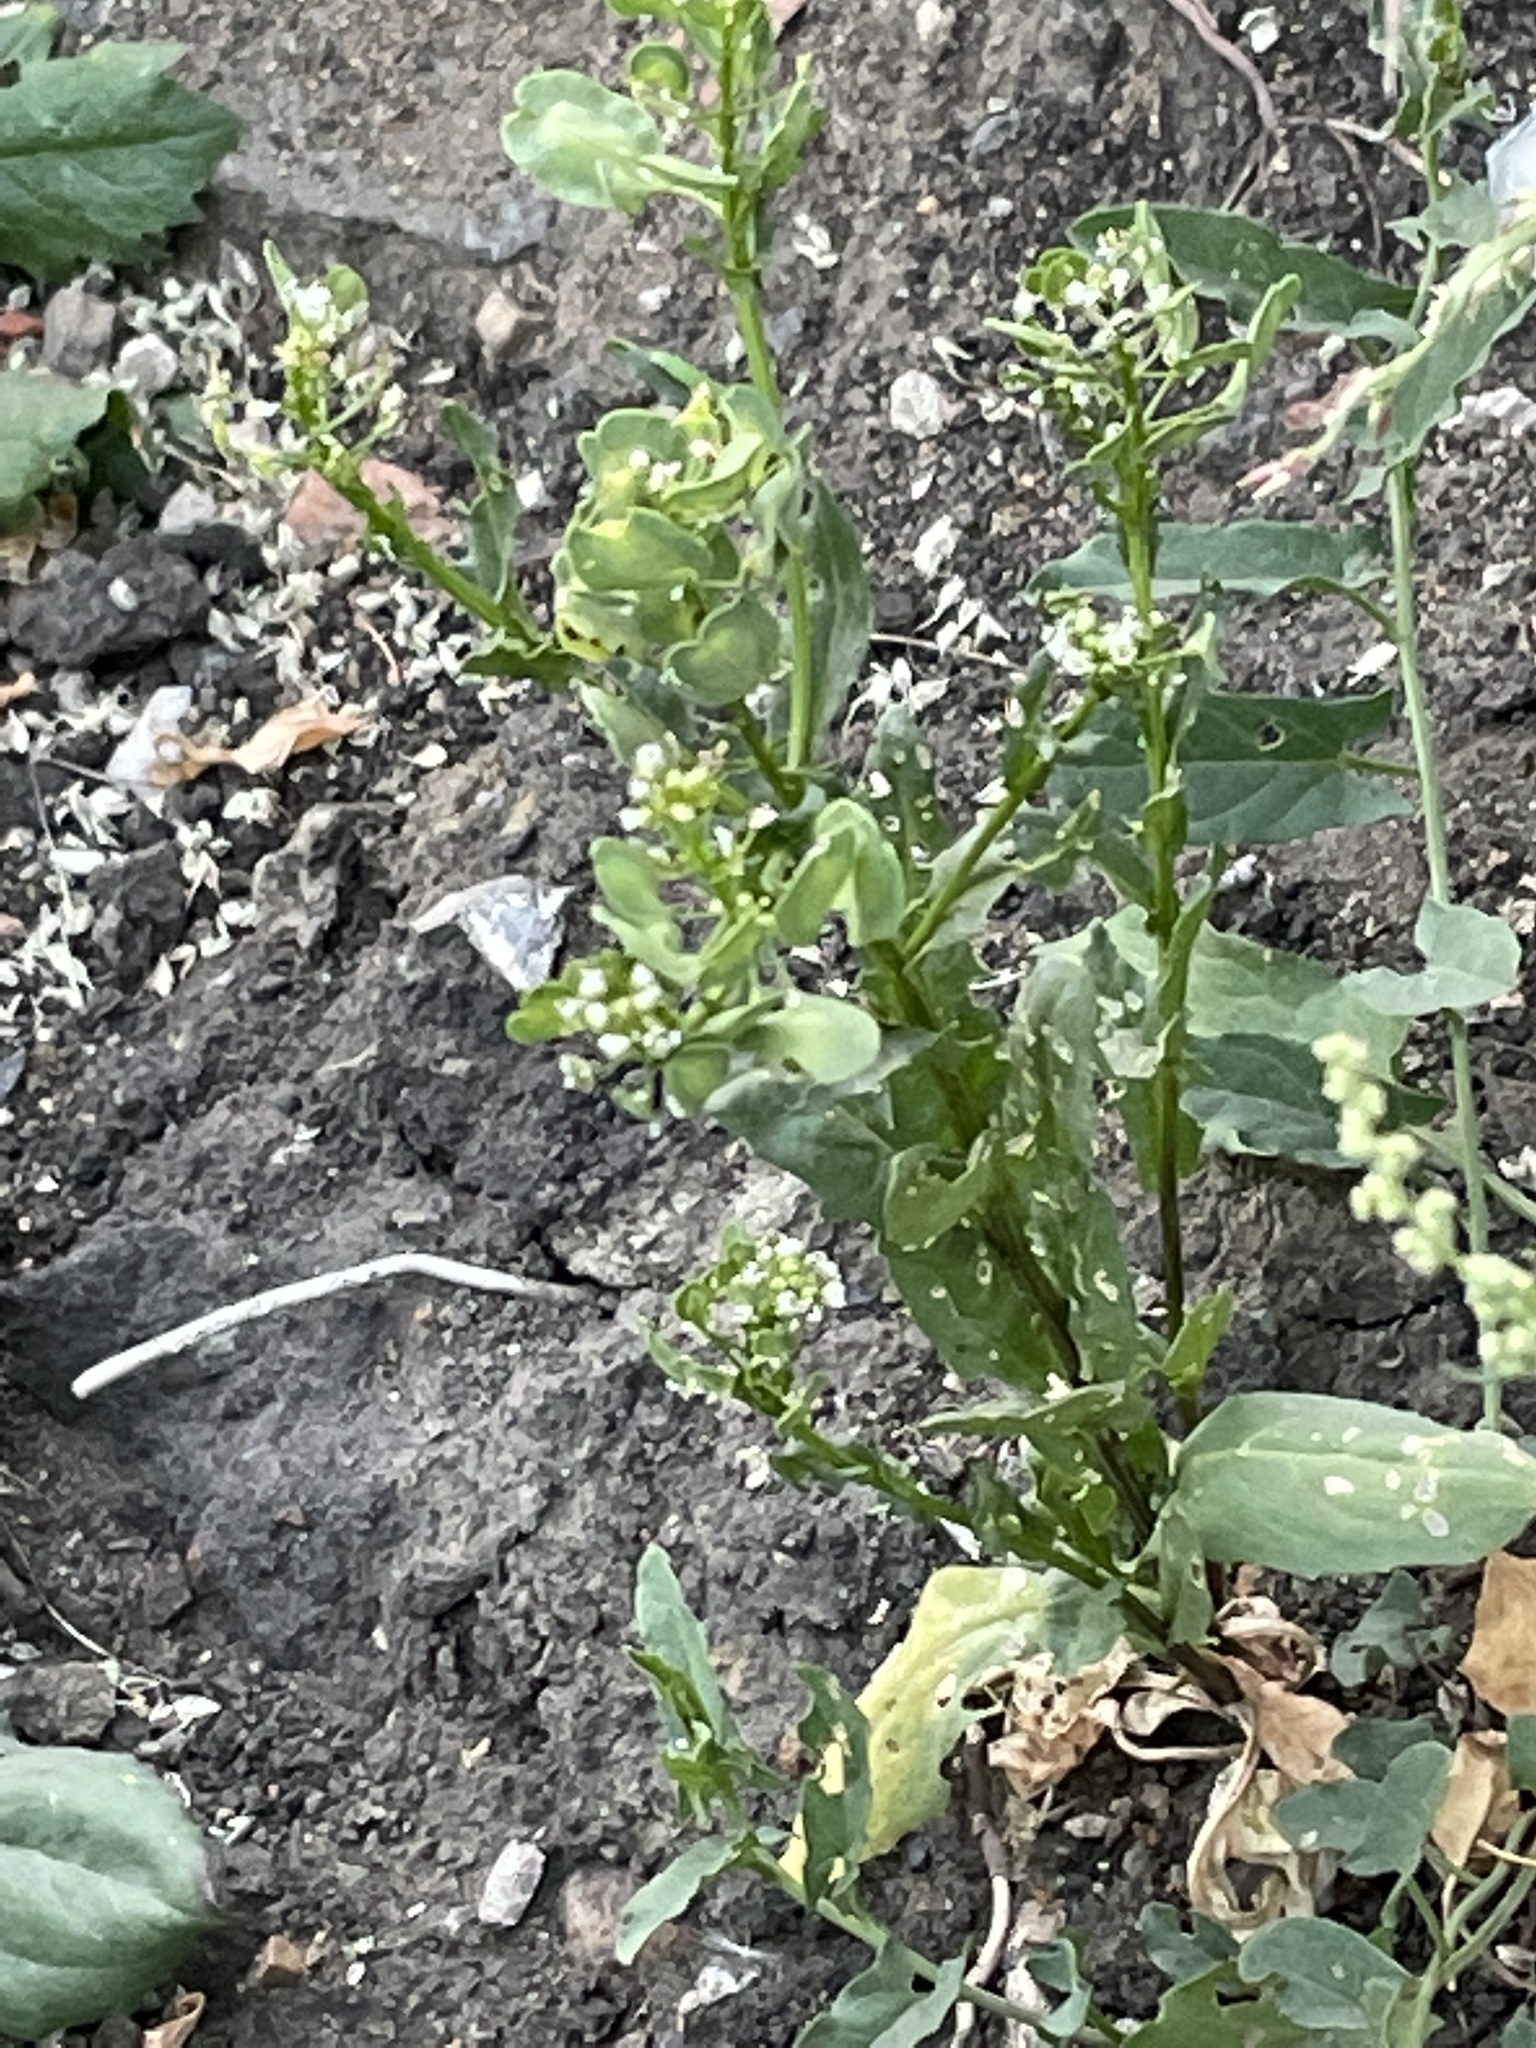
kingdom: Plantae
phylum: Tracheophyta
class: Magnoliopsida
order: Brassicales
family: Brassicaceae
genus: Thlaspi
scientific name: Thlaspi arvense
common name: Field pennycress
